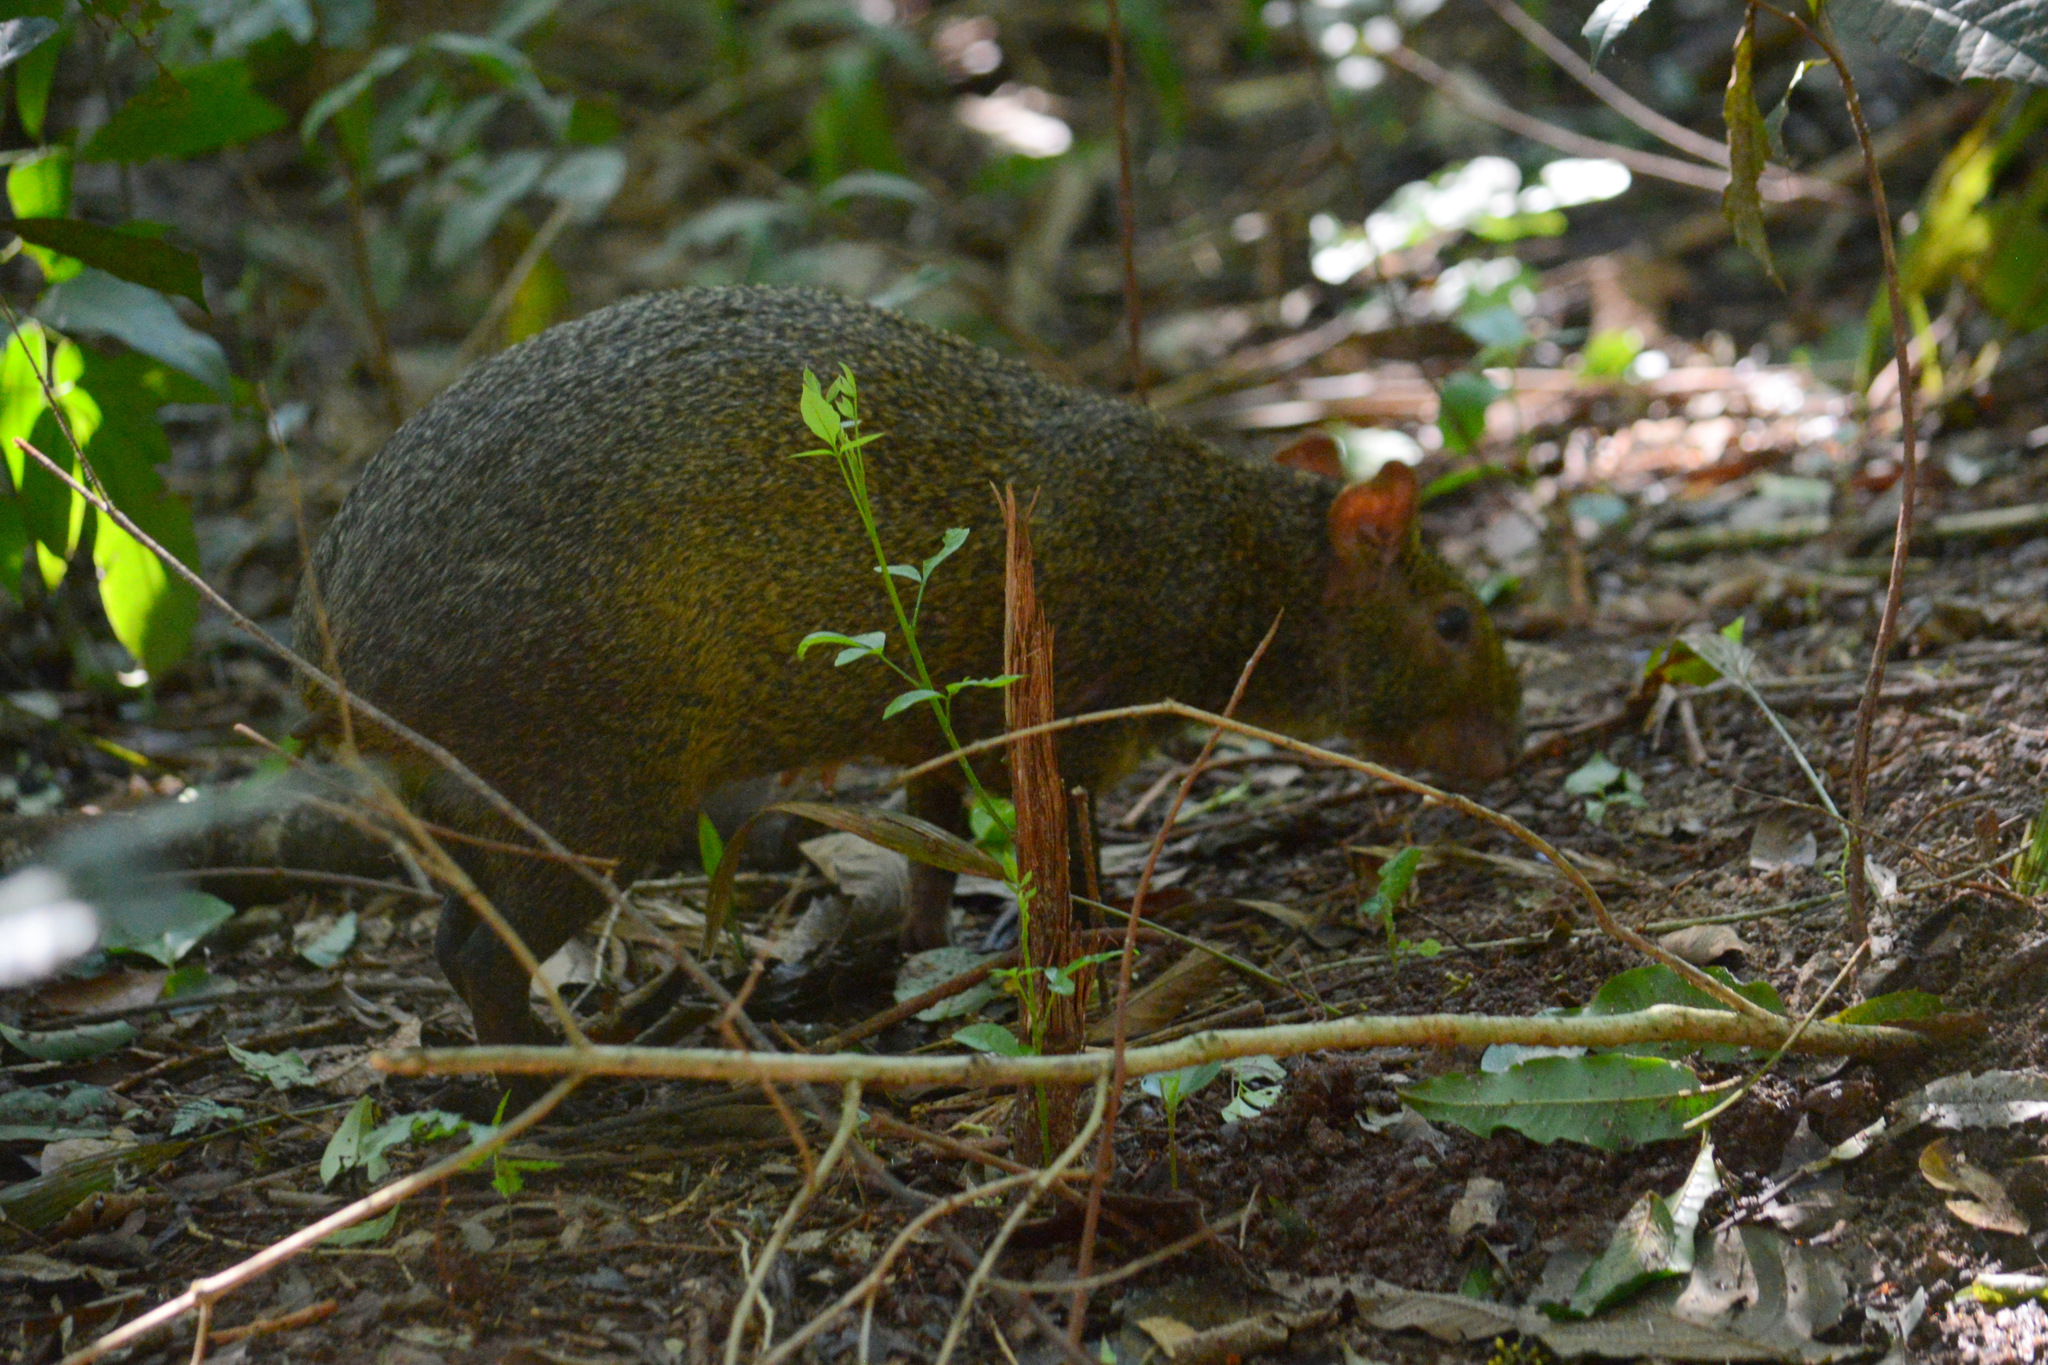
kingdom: Animalia
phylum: Chordata
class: Mammalia
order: Rodentia
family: Dasyproctidae
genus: Dasyprocta
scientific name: Dasyprocta azarae
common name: Azara's agouti
